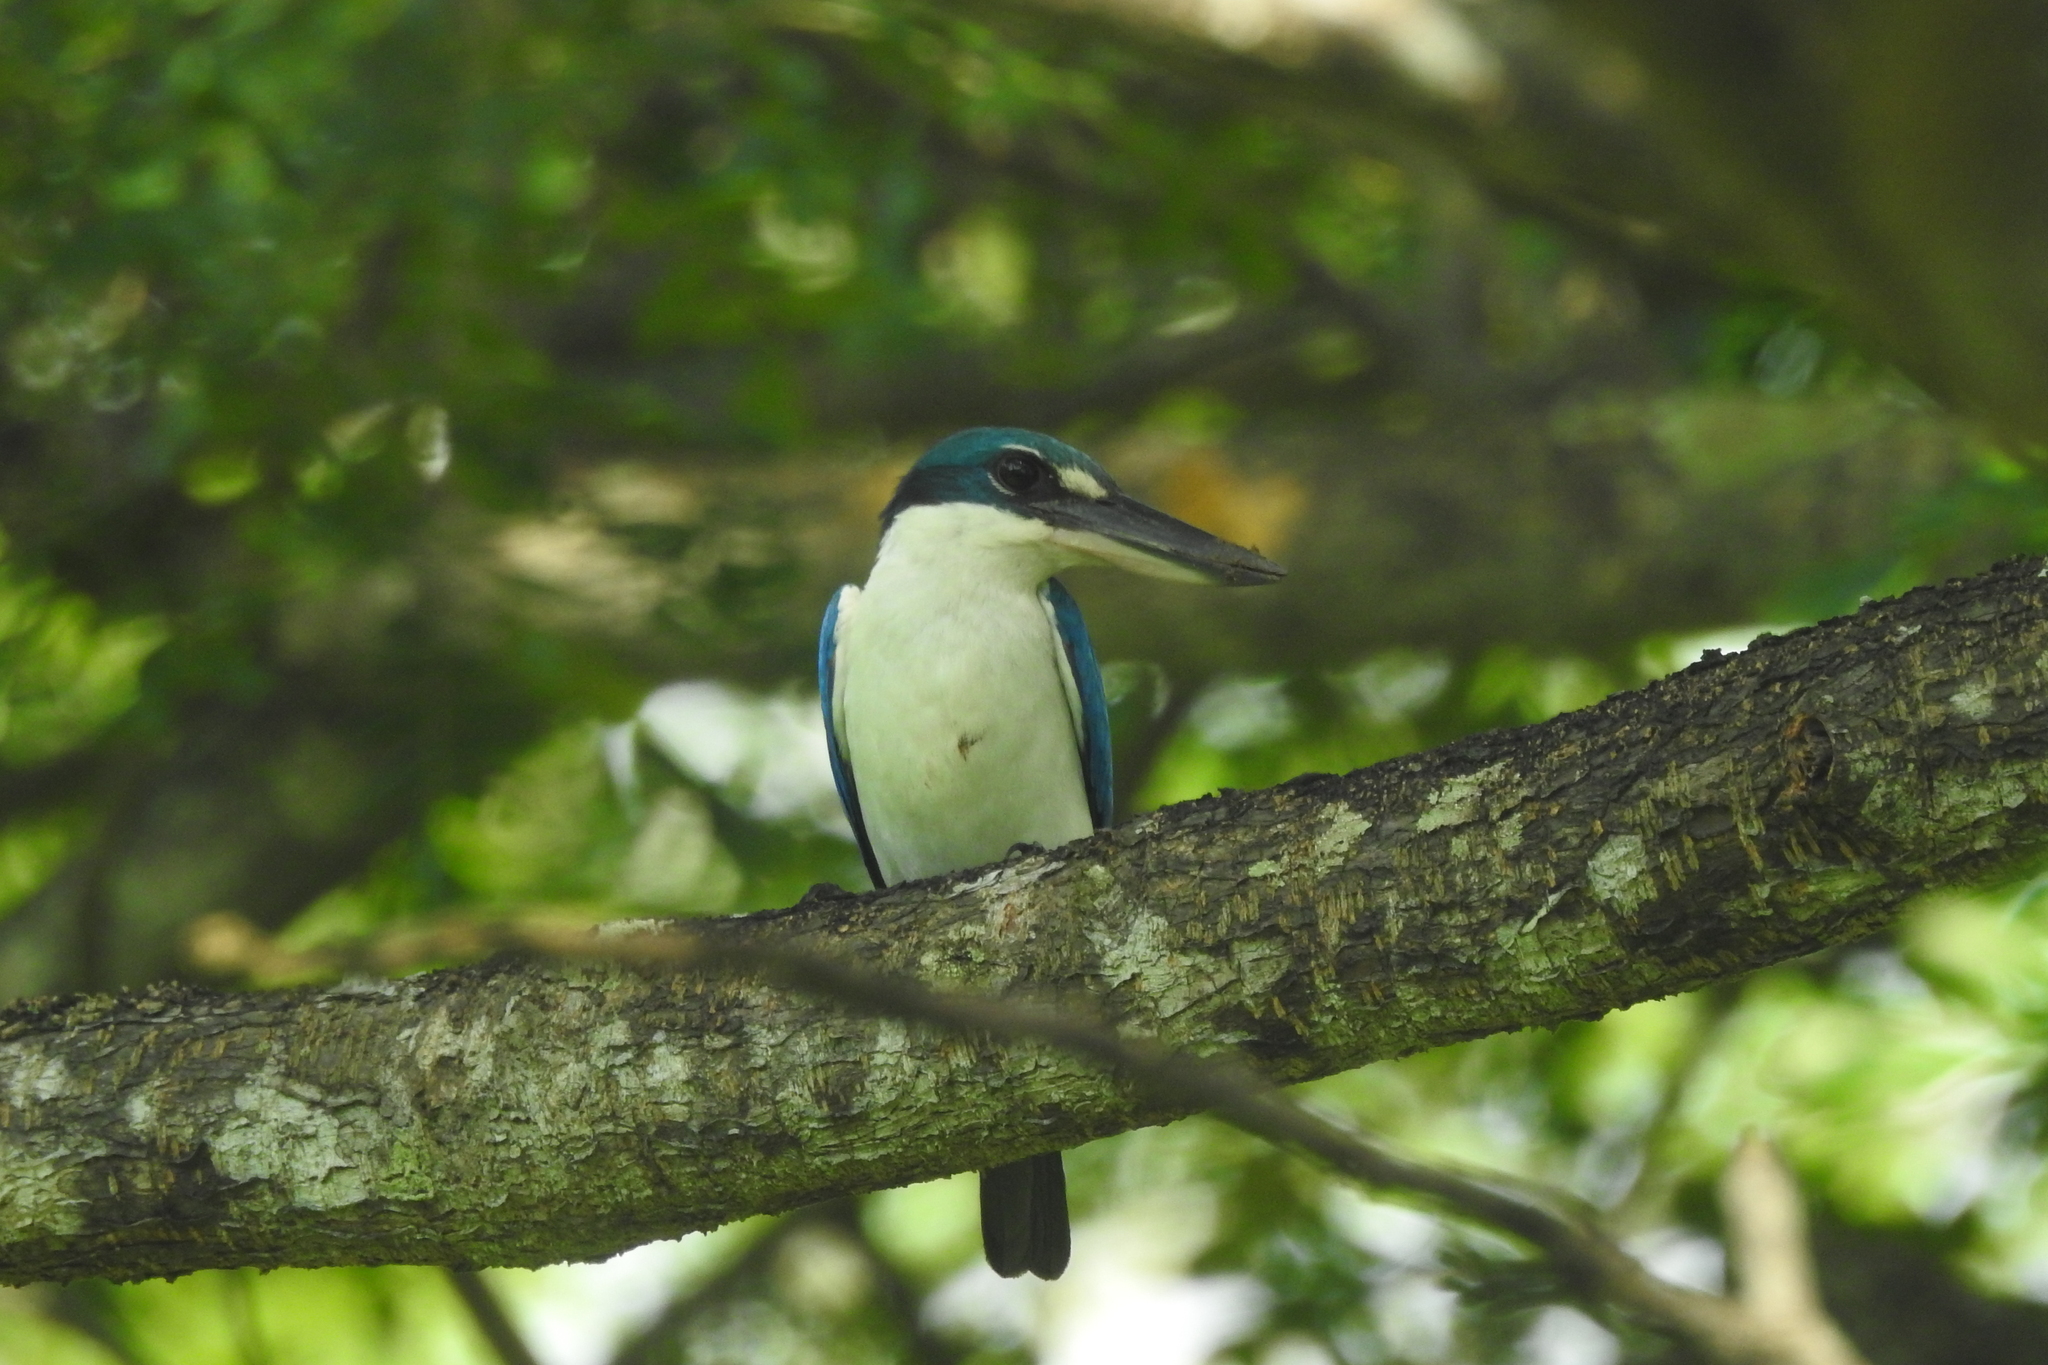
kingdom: Animalia
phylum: Chordata
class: Aves
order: Coraciiformes
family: Alcedinidae
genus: Todiramphus
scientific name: Todiramphus chloris
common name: Collared kingfisher
